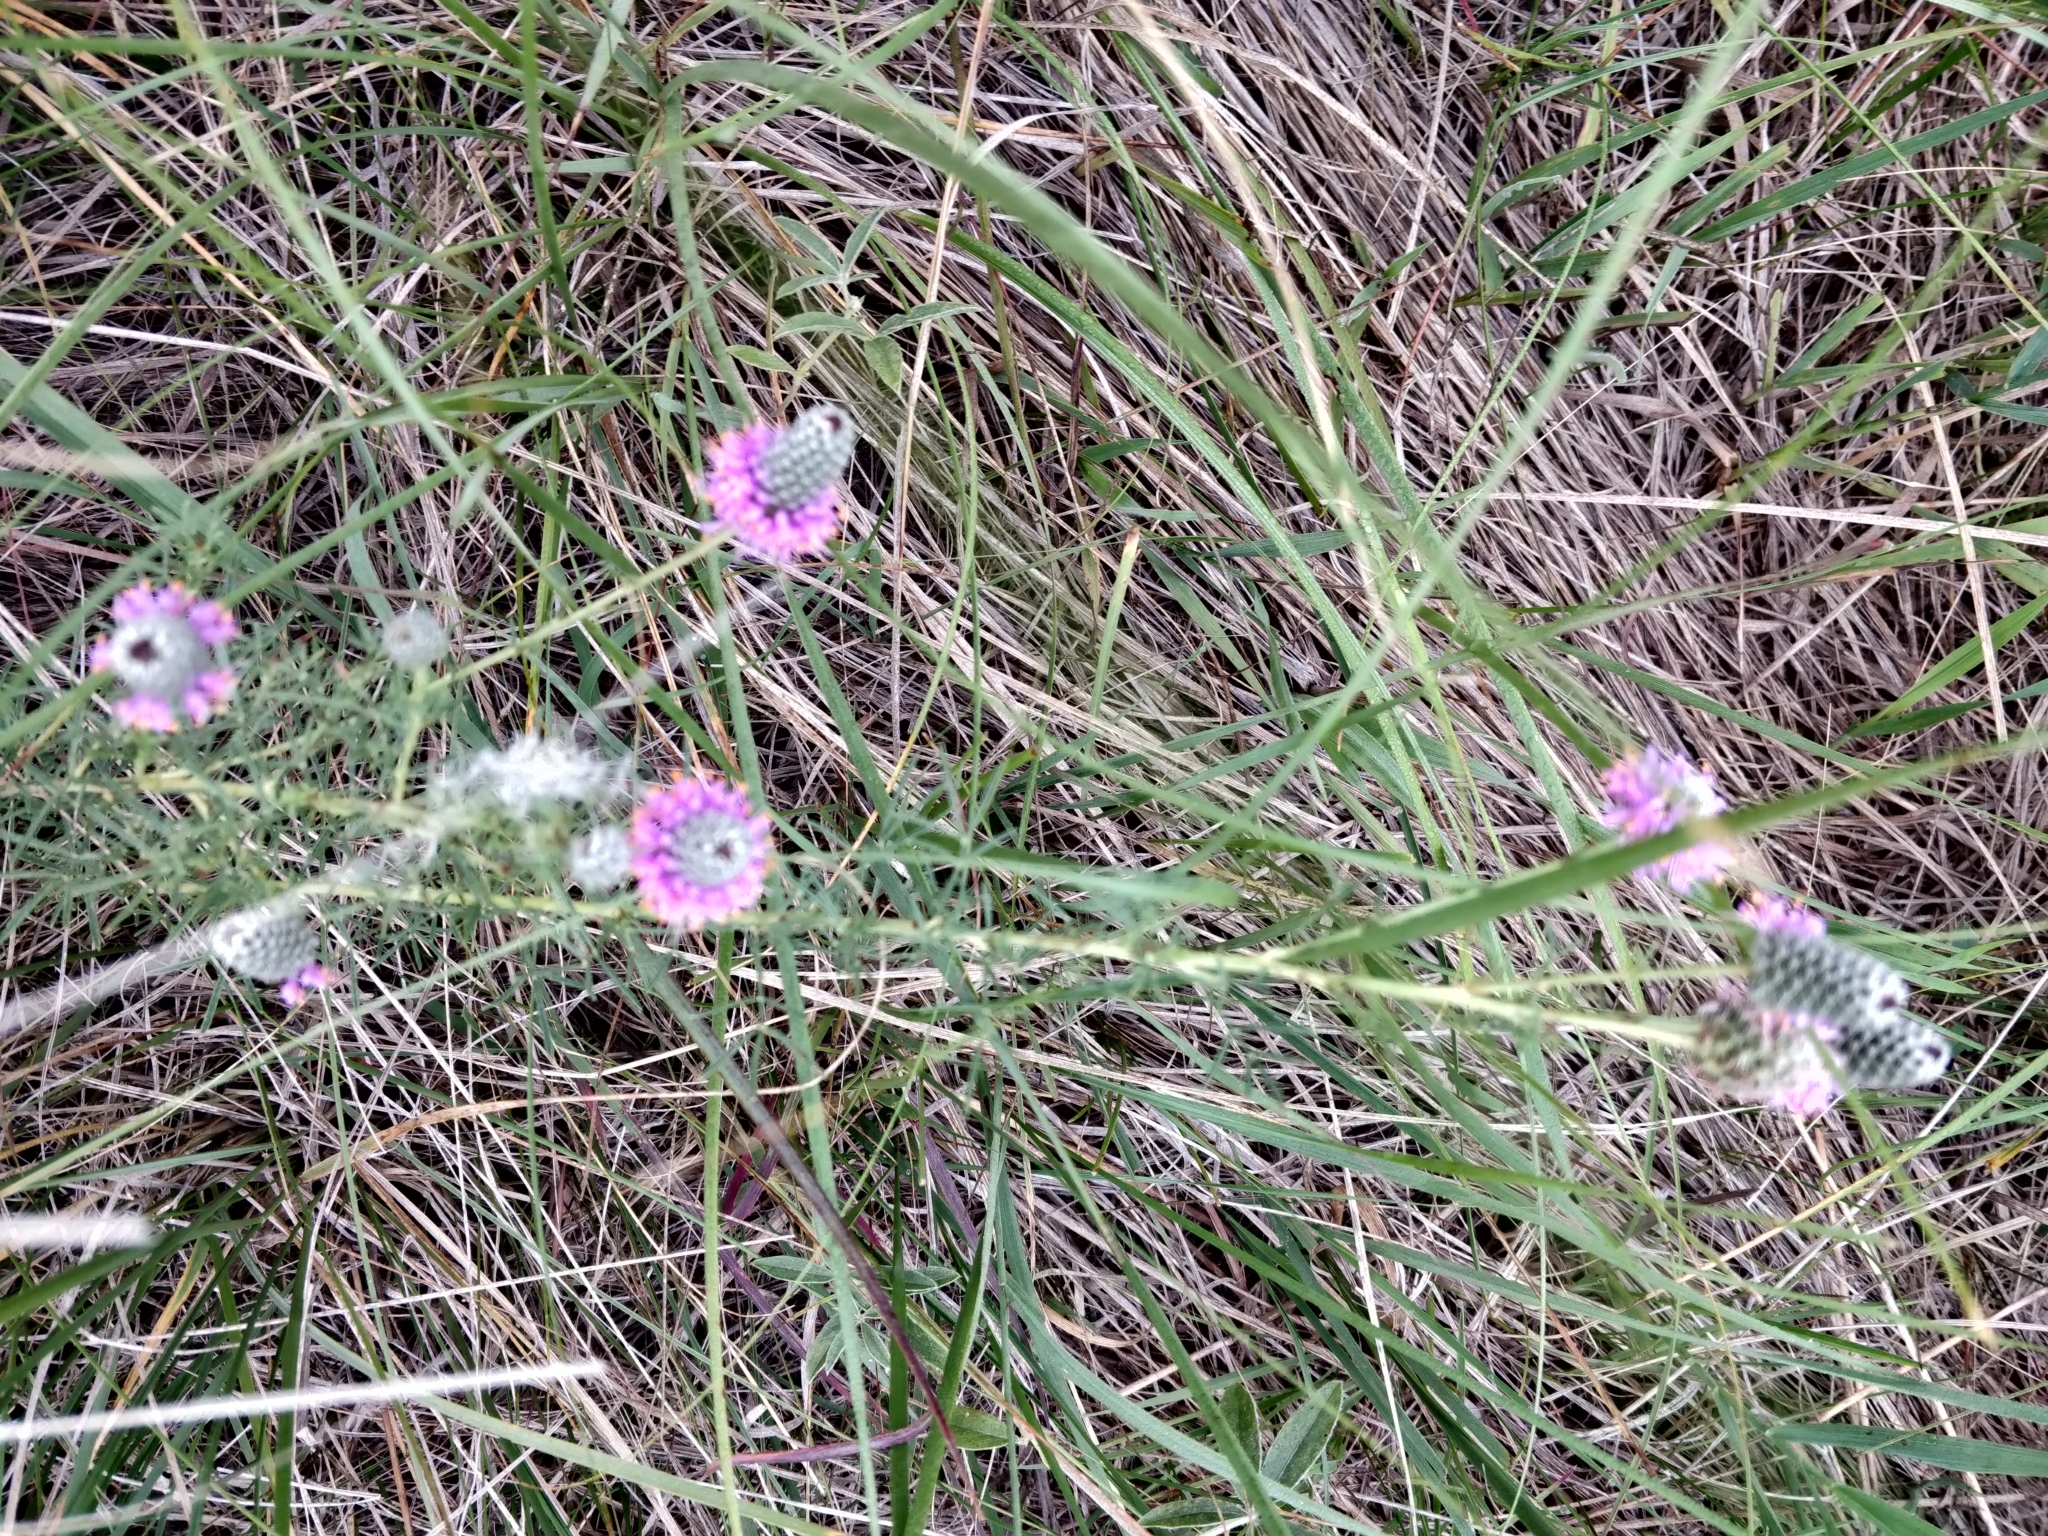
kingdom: Plantae
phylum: Tracheophyta
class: Magnoliopsida
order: Fabales
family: Fabaceae
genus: Dalea
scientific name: Dalea purpurea
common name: Purple prairie-clover
